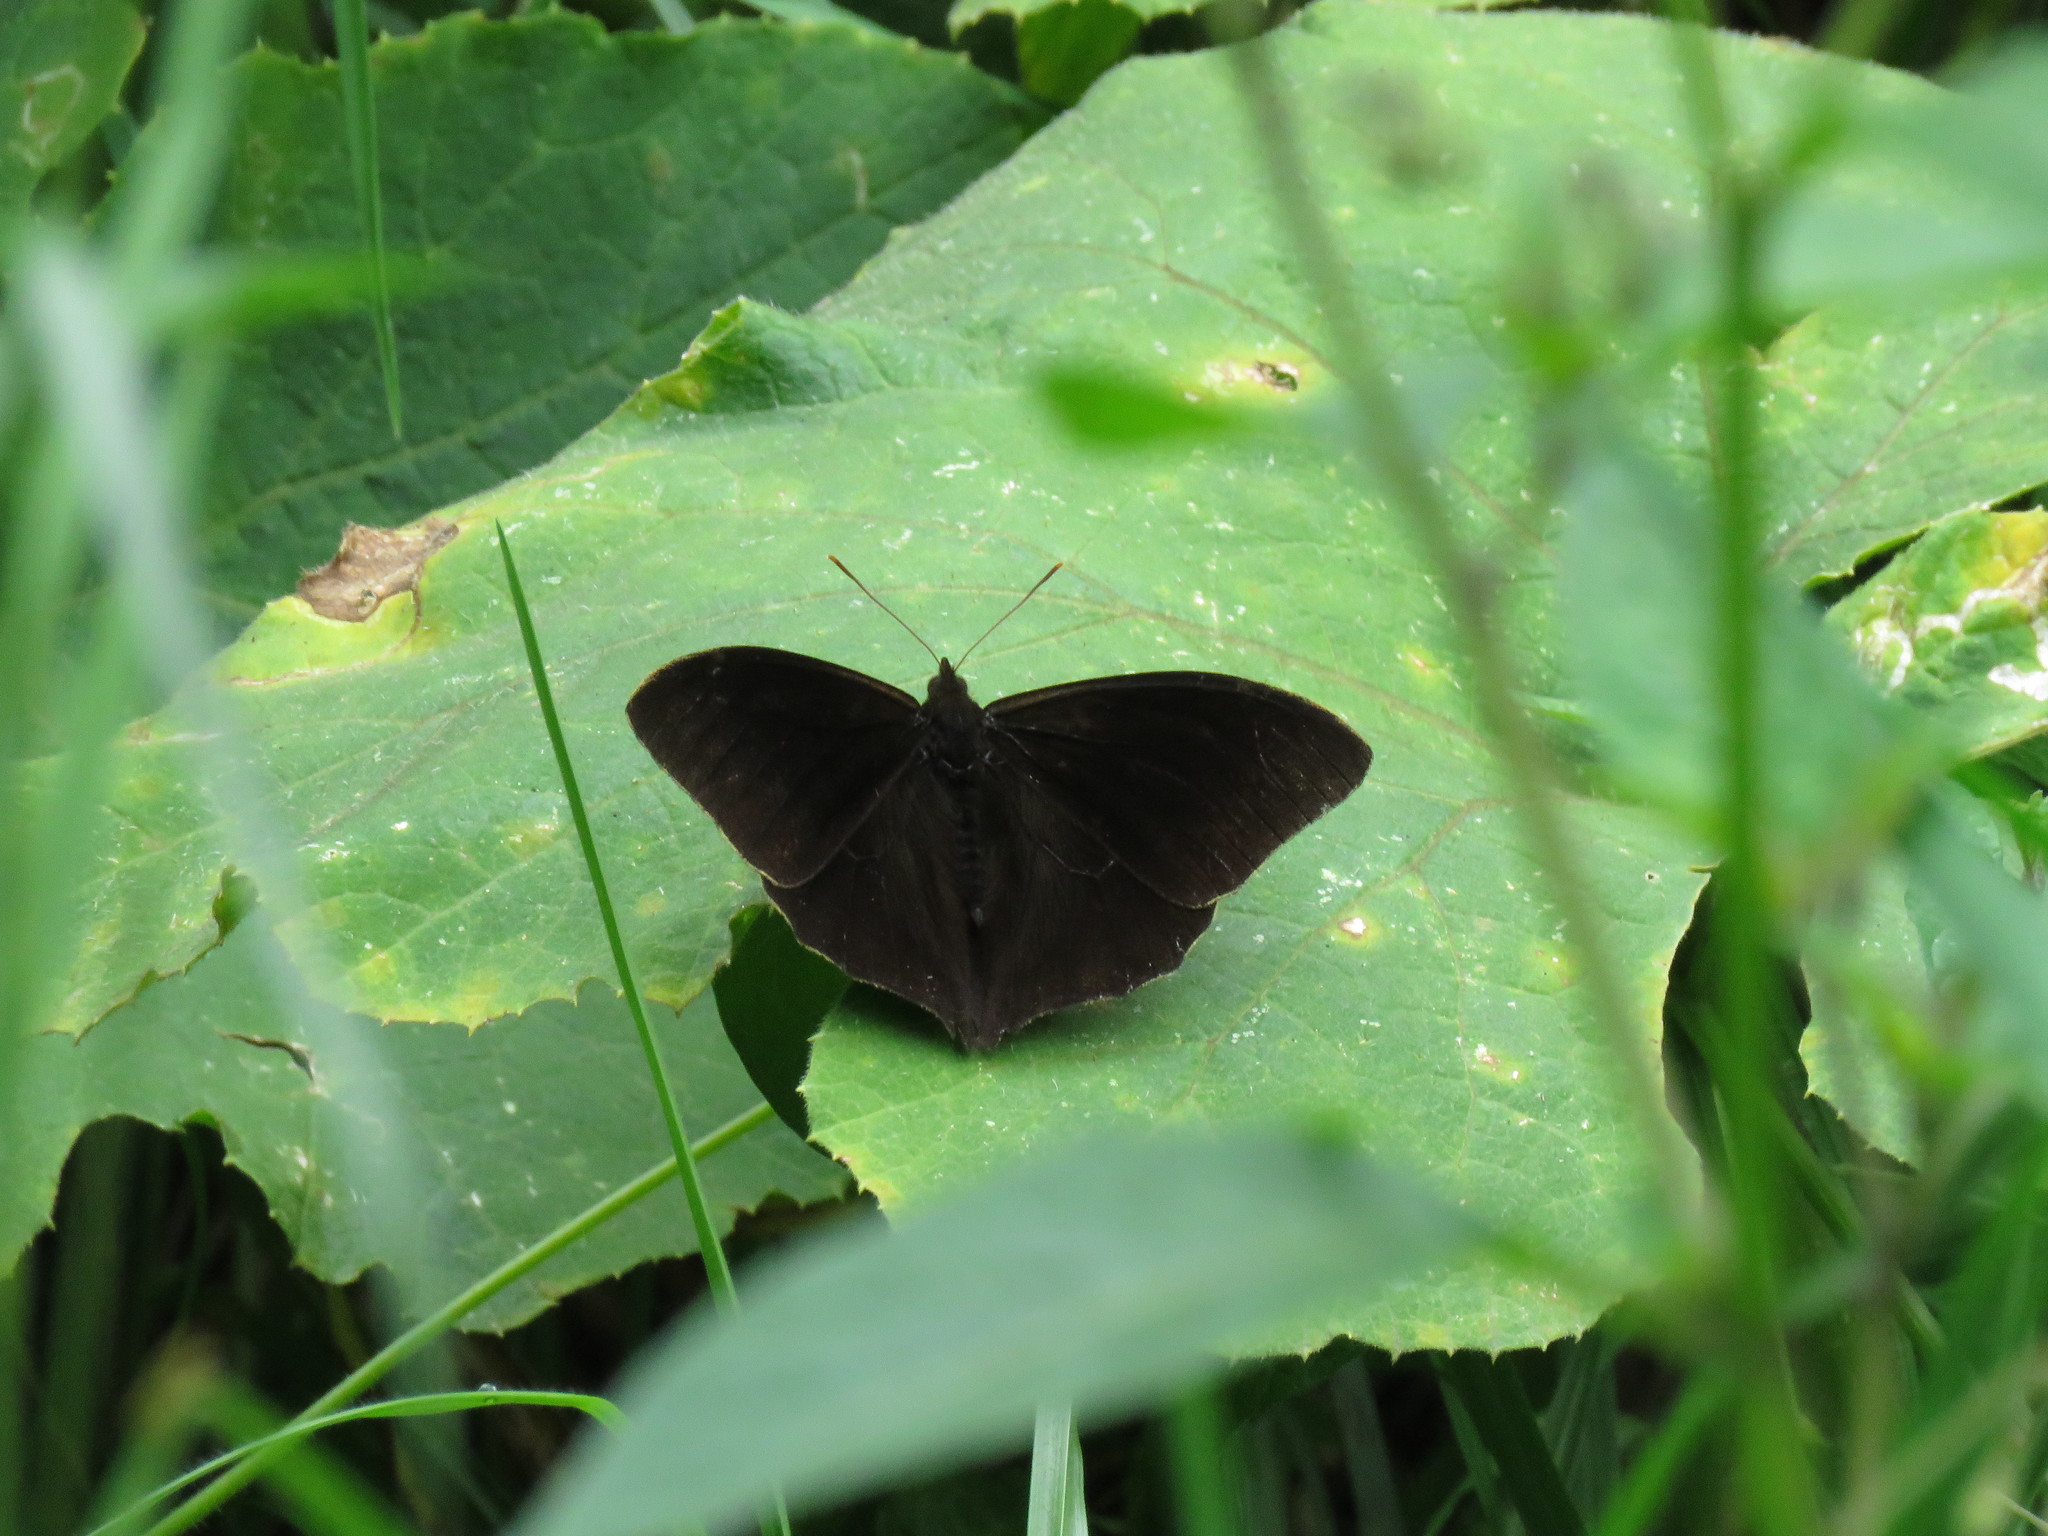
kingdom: Animalia
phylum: Arthropoda
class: Insecta
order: Lepidoptera
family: Nymphalidae
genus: Corades
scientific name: Corades medeba
